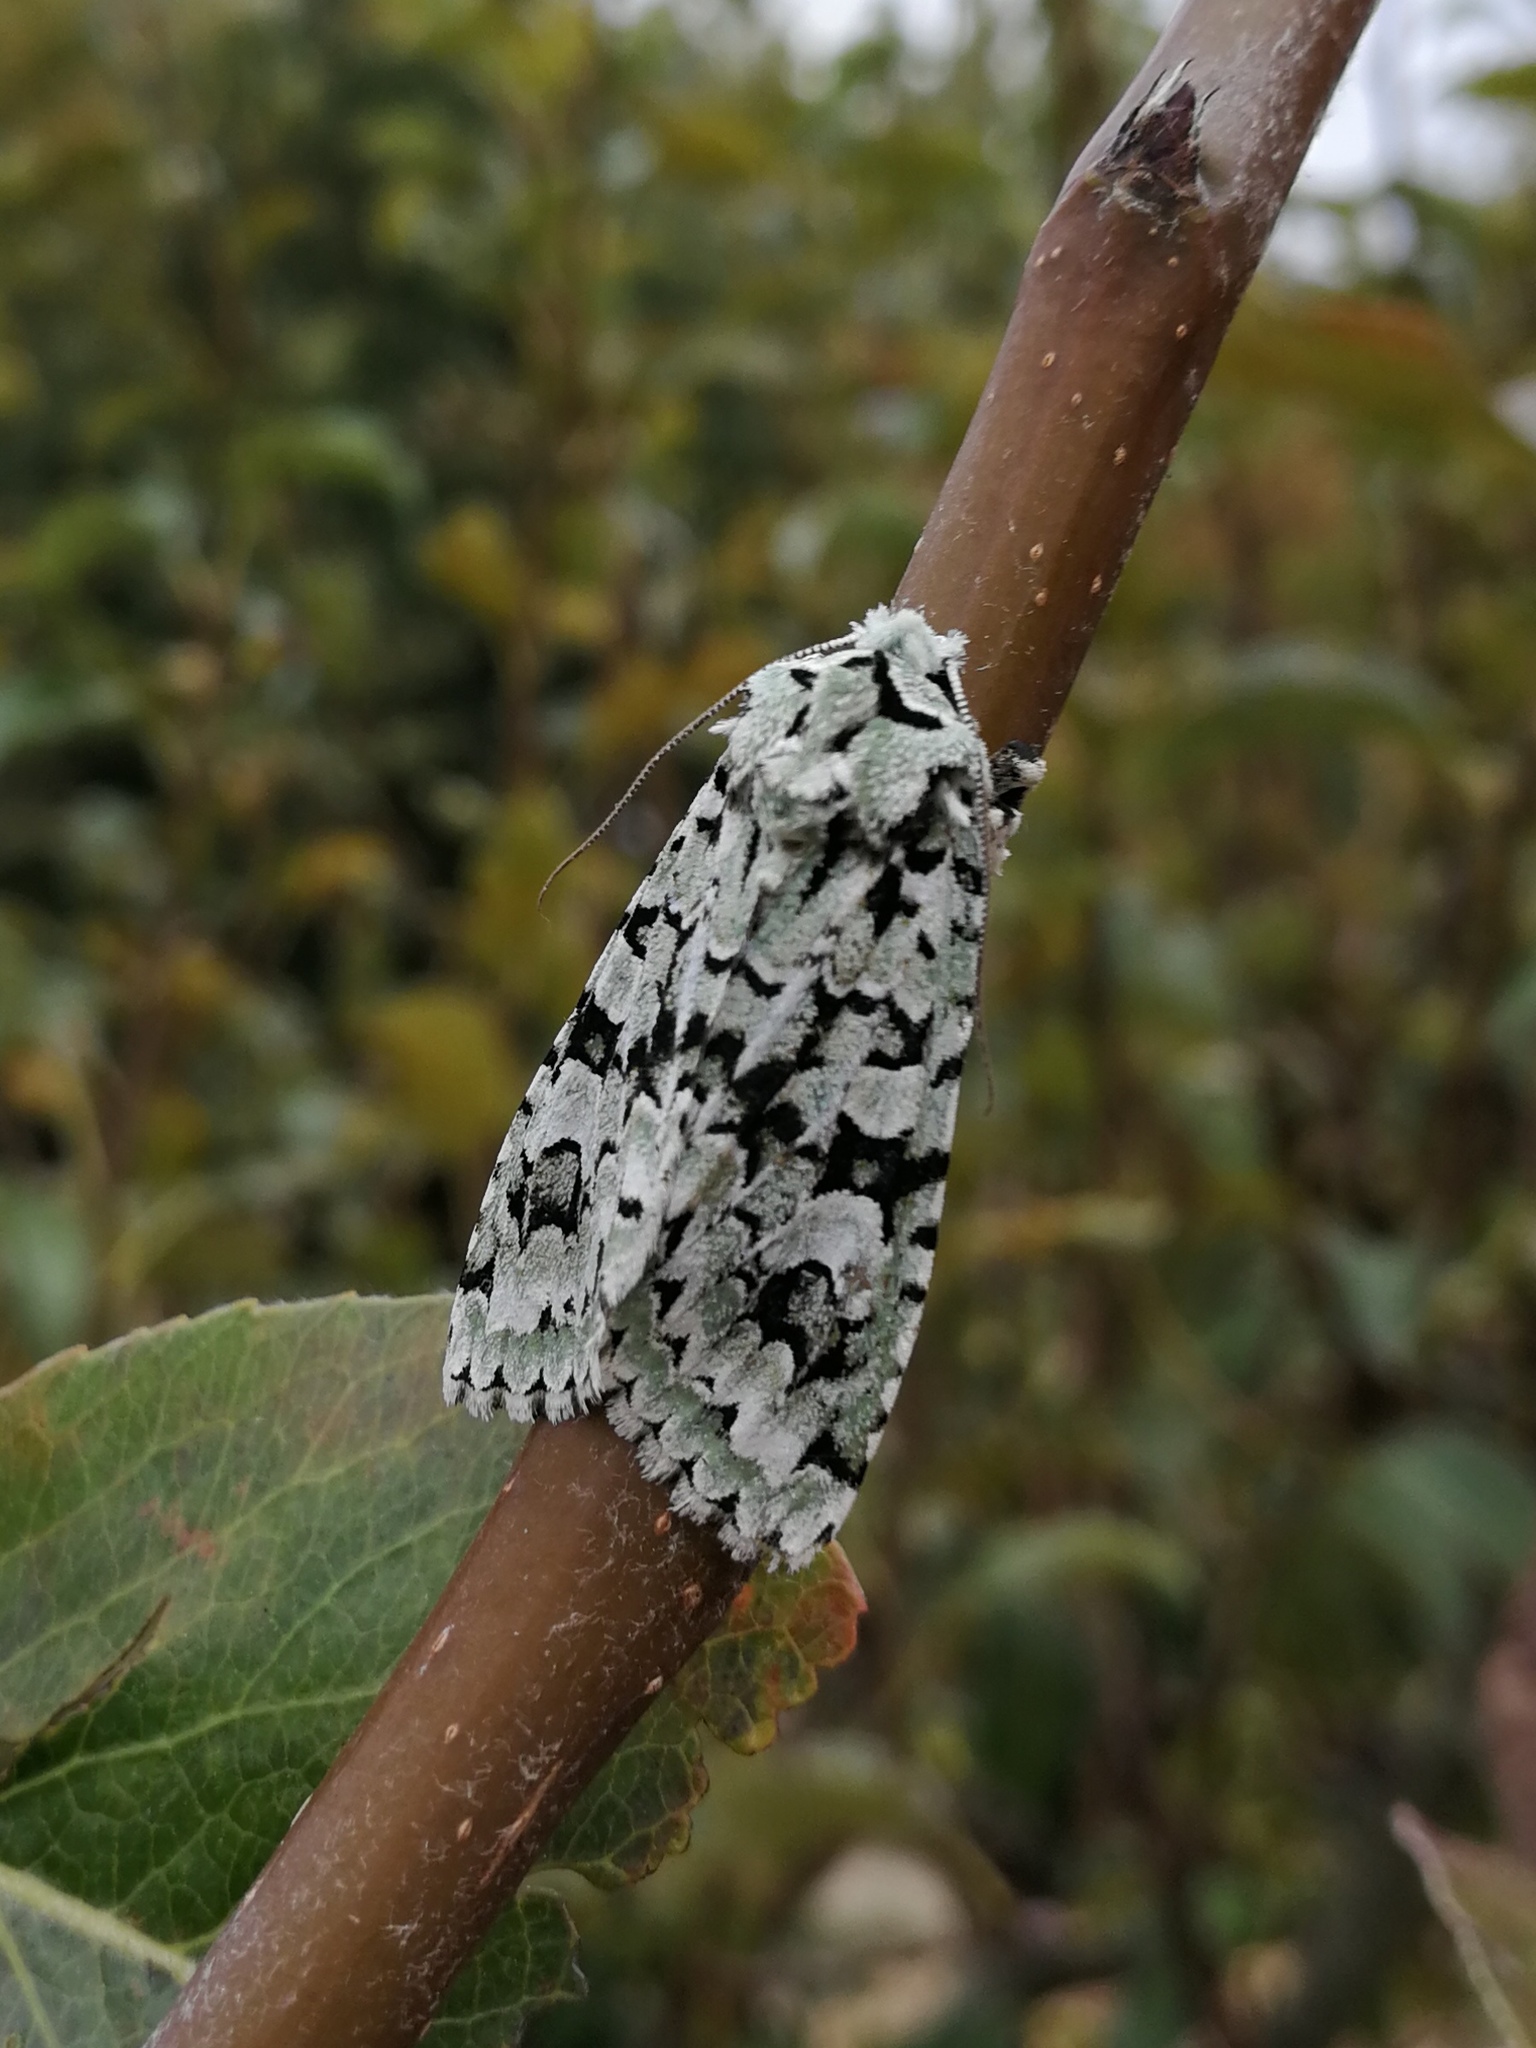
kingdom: Animalia
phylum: Arthropoda
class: Insecta
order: Lepidoptera
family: Noctuidae
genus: Griposia
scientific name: Griposia aprilina
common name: Merveille du jour
